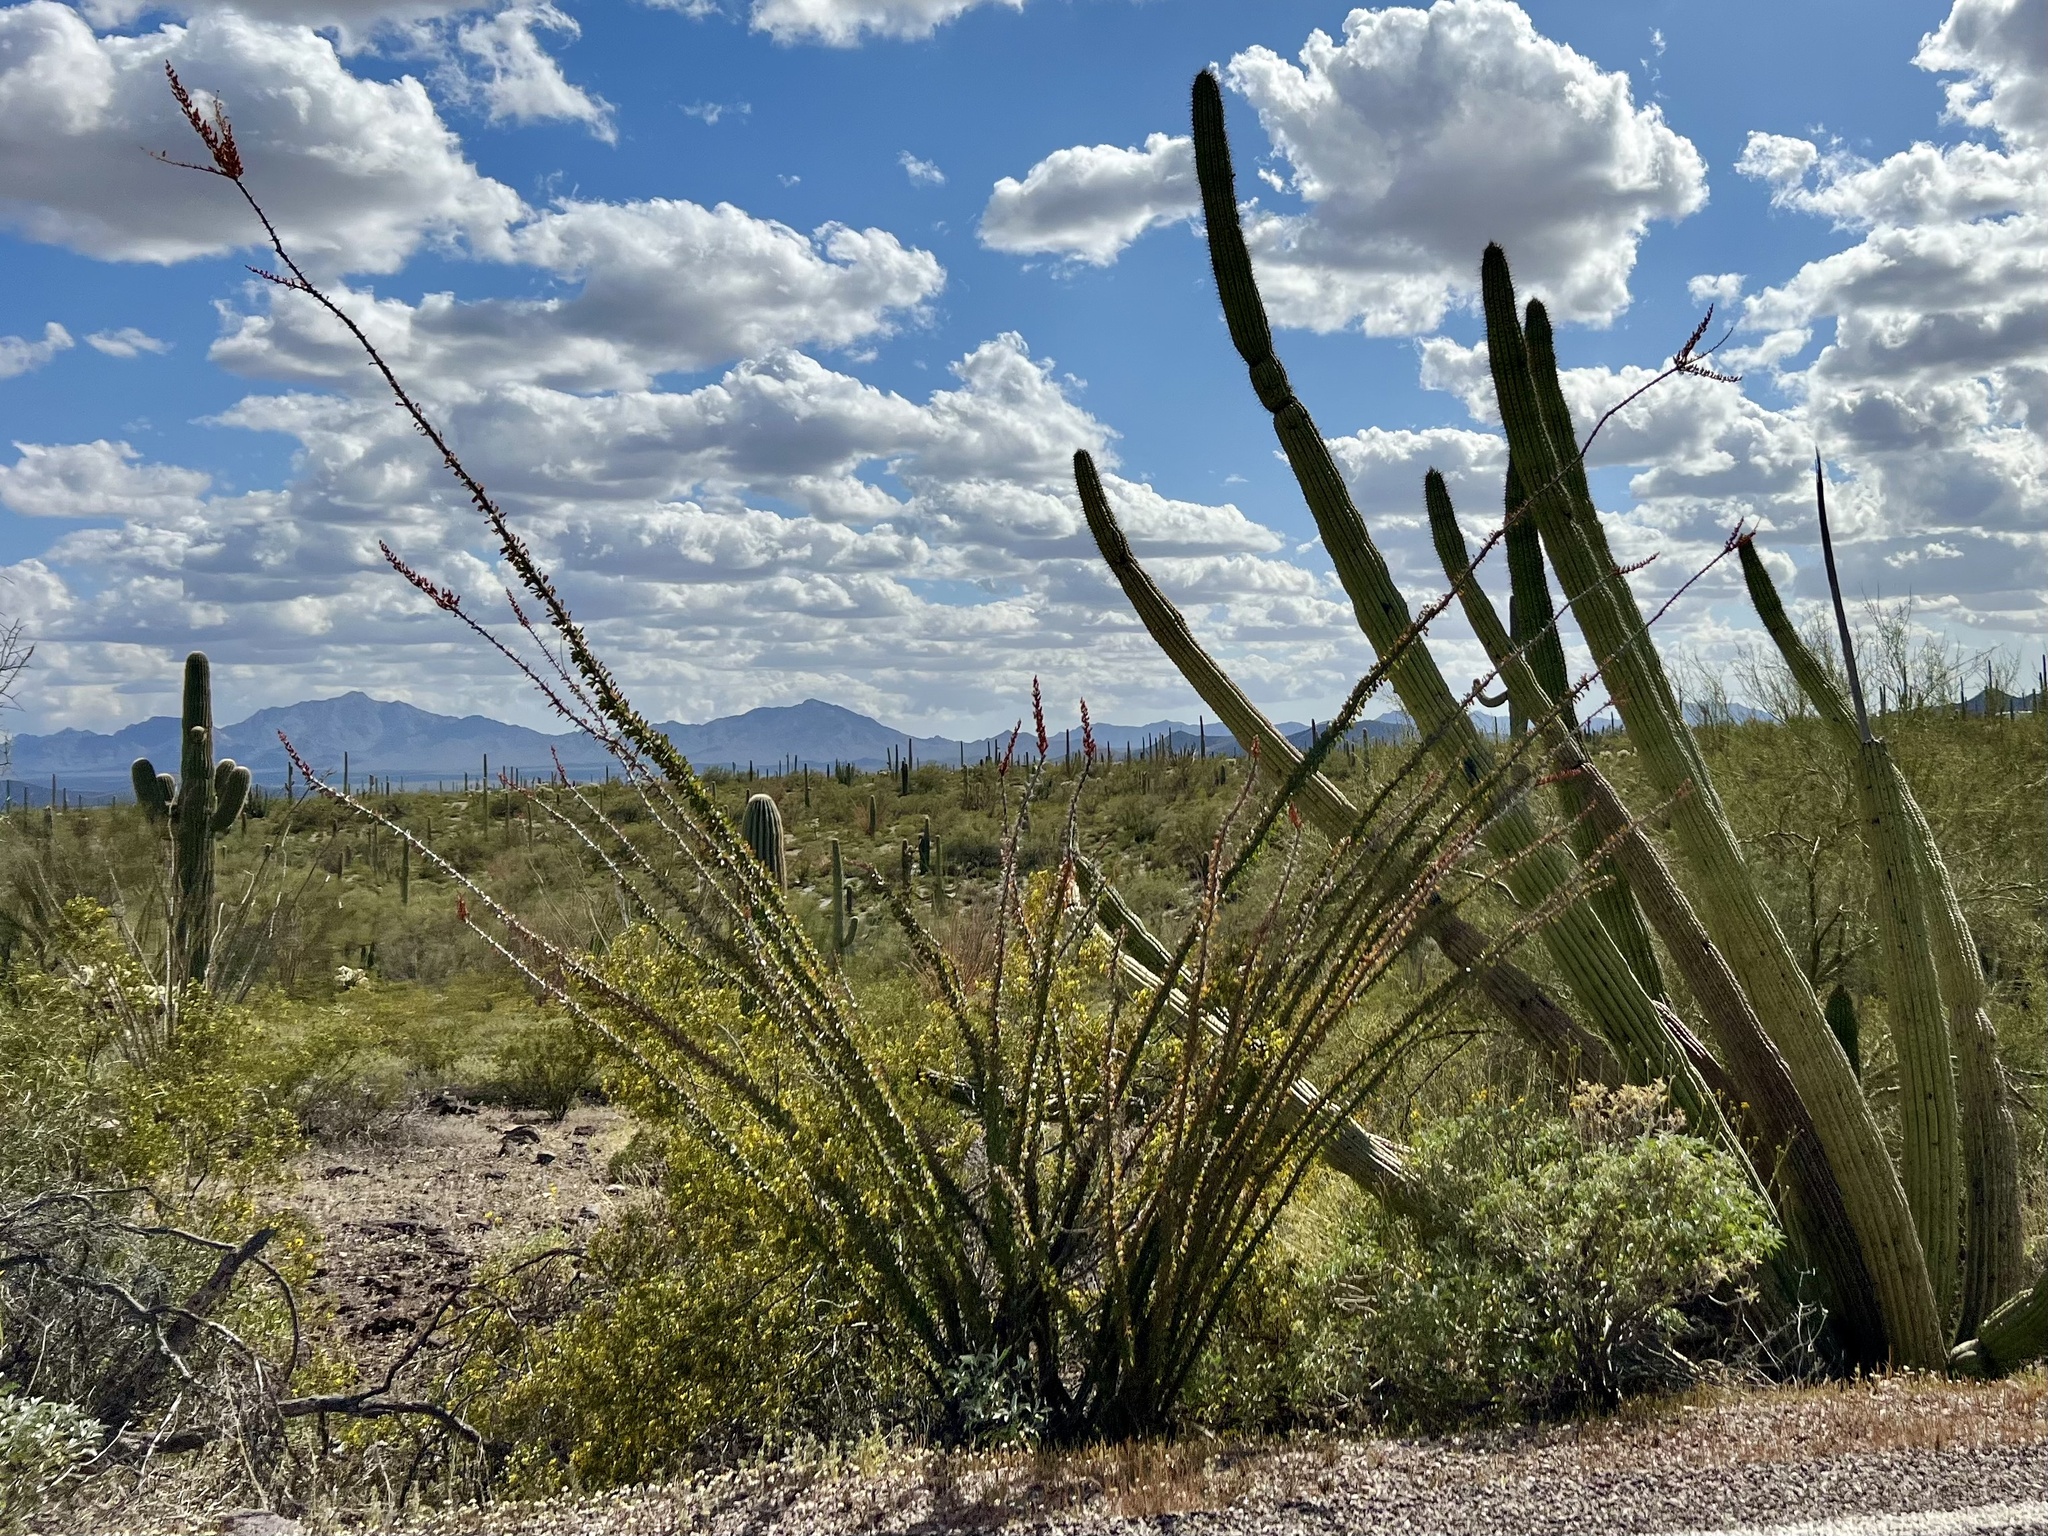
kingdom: Plantae
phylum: Tracheophyta
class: Magnoliopsida
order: Ericales
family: Fouquieriaceae
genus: Fouquieria
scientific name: Fouquieria splendens
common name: Vine-cactus
